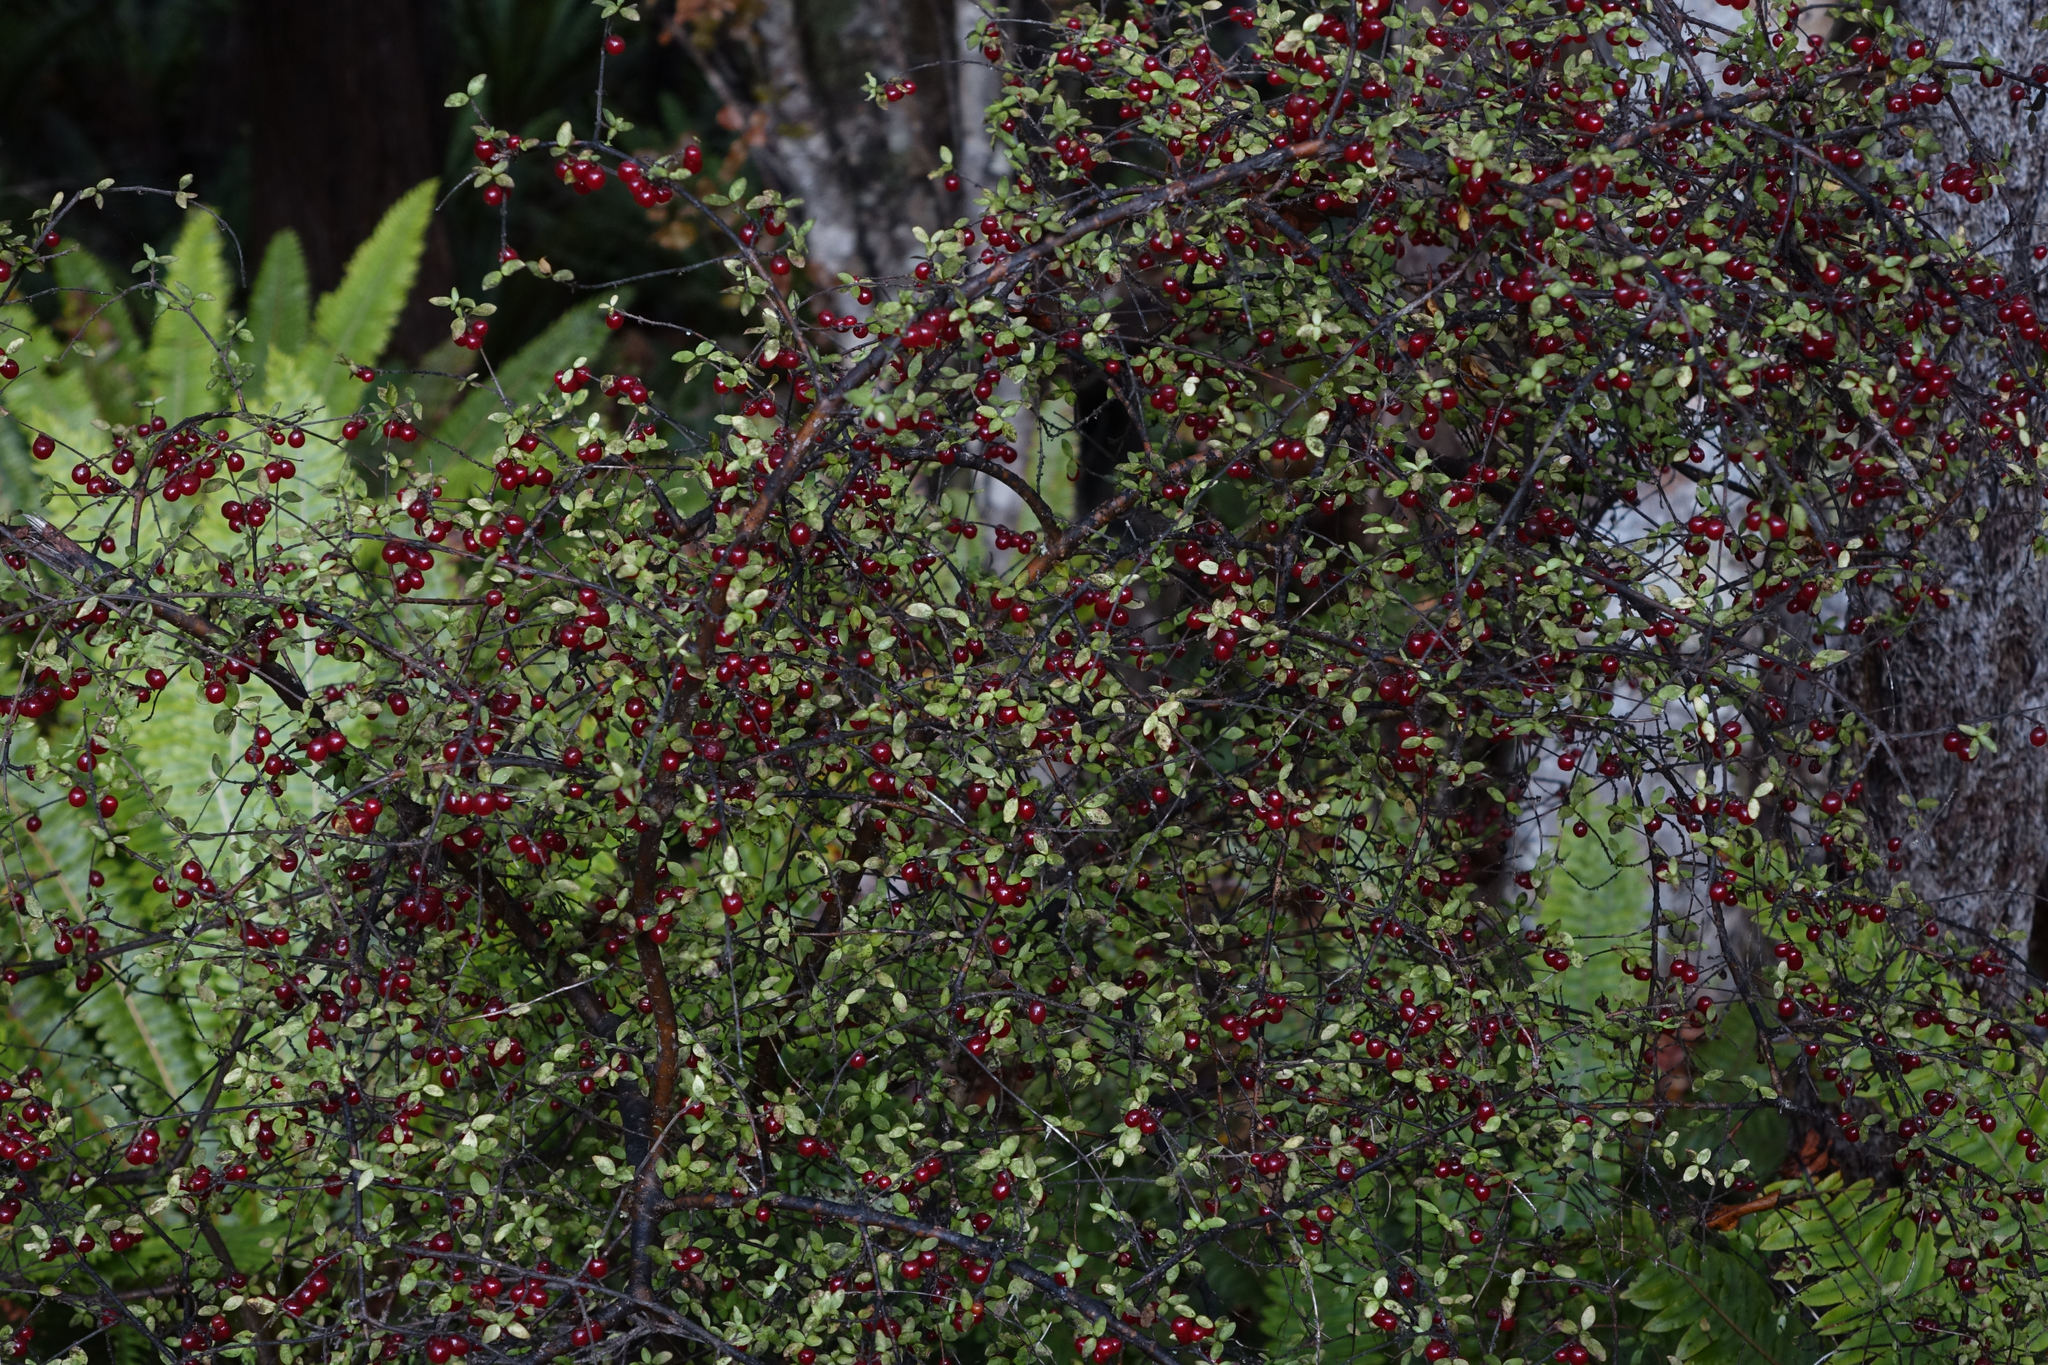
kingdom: Plantae
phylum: Tracheophyta
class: Magnoliopsida
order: Gentianales
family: Rubiaceae
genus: Coprosma
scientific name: Coprosma rhamnoides
